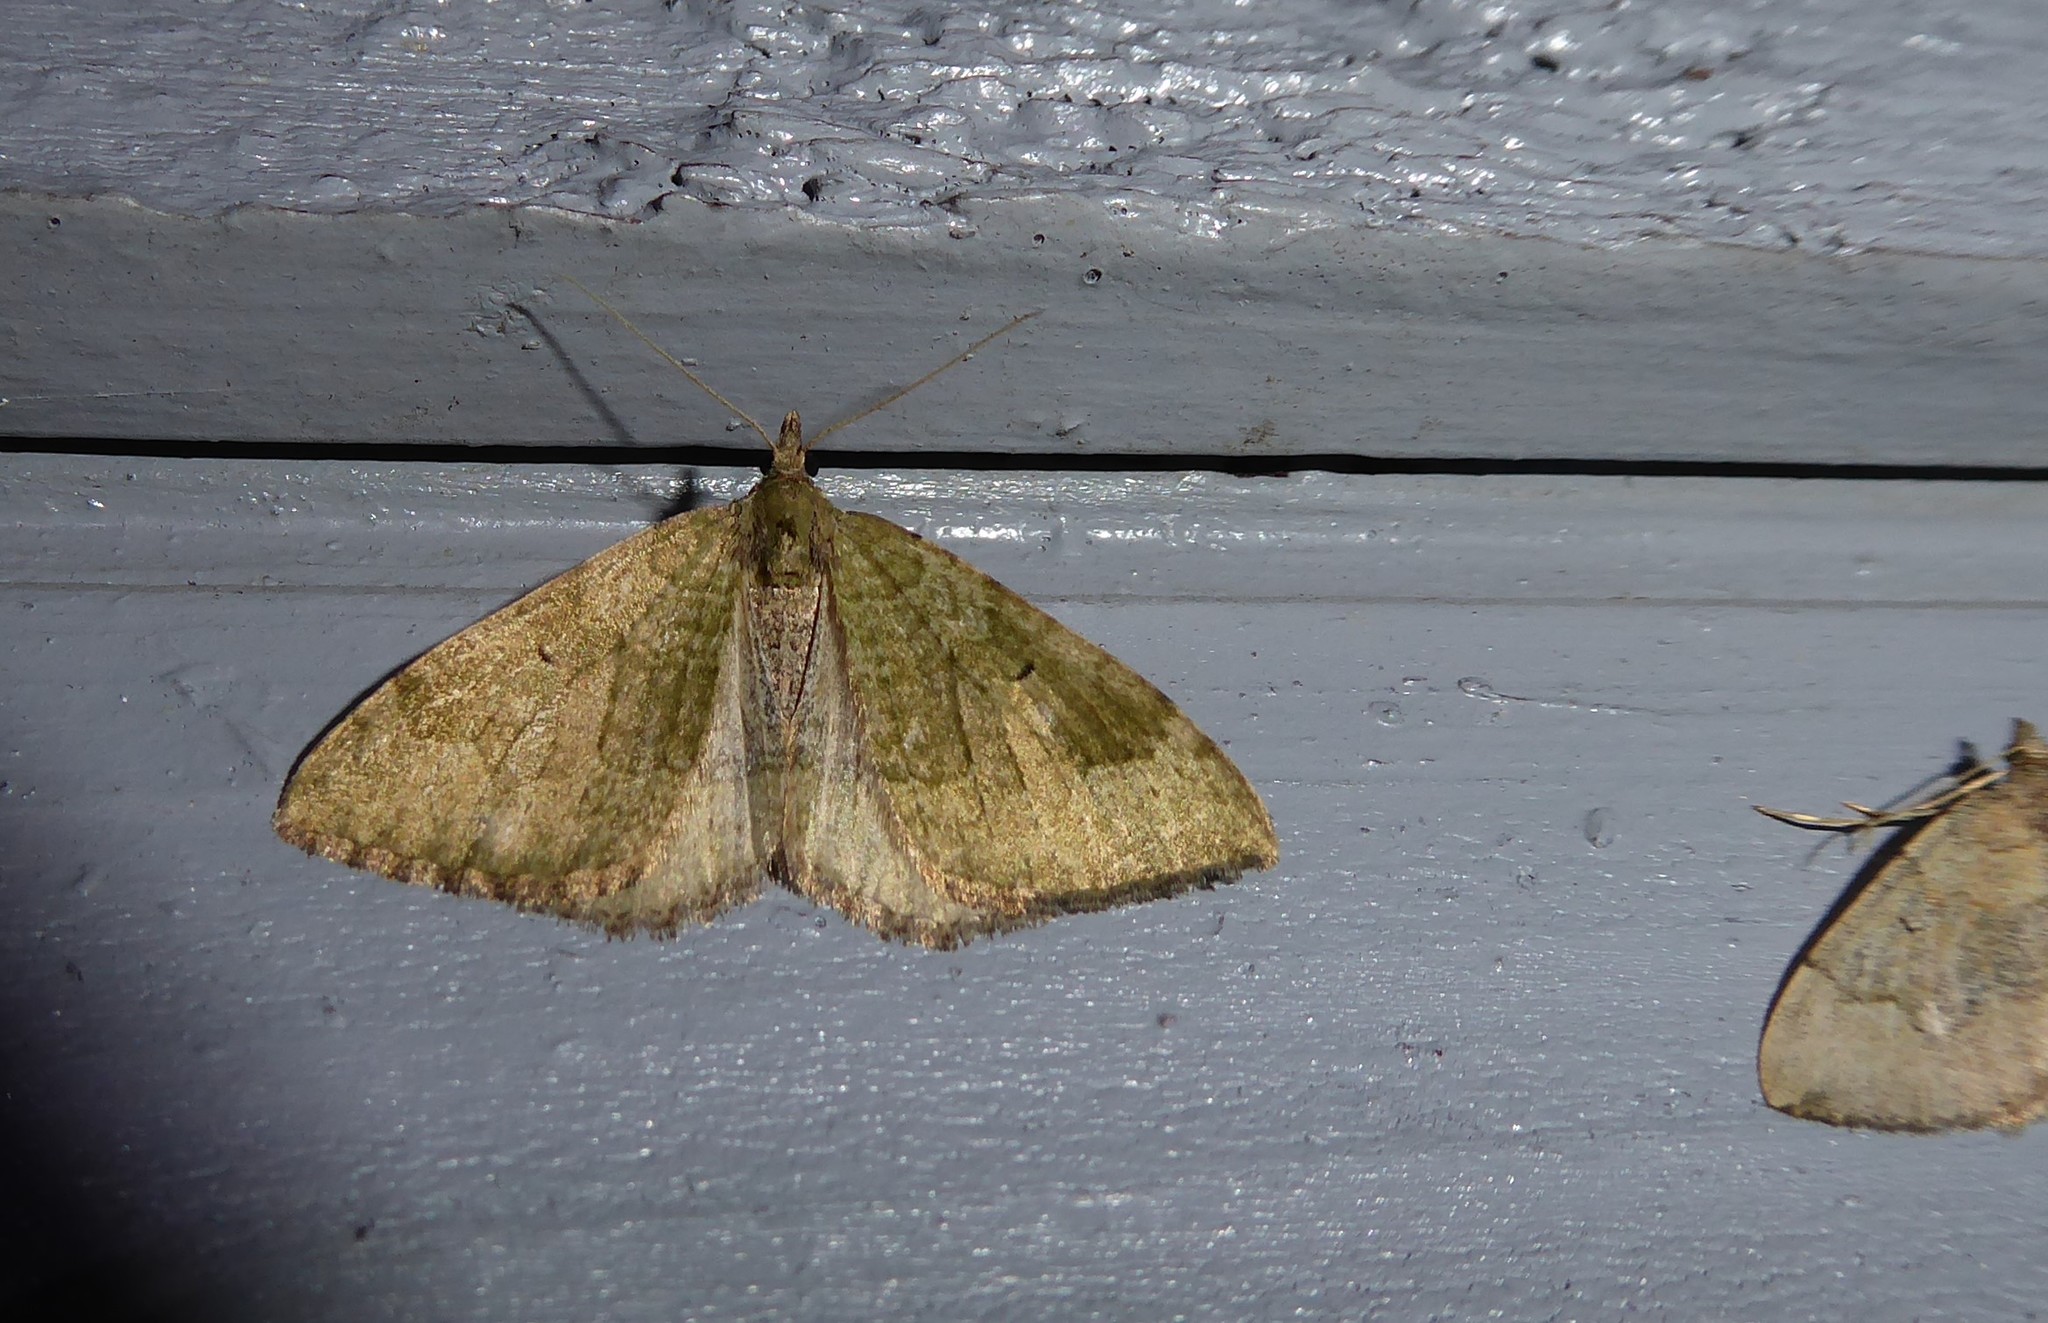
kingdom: Animalia
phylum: Arthropoda
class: Insecta
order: Lepidoptera
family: Geometridae
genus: Epyaxa
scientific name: Epyaxa rosearia
